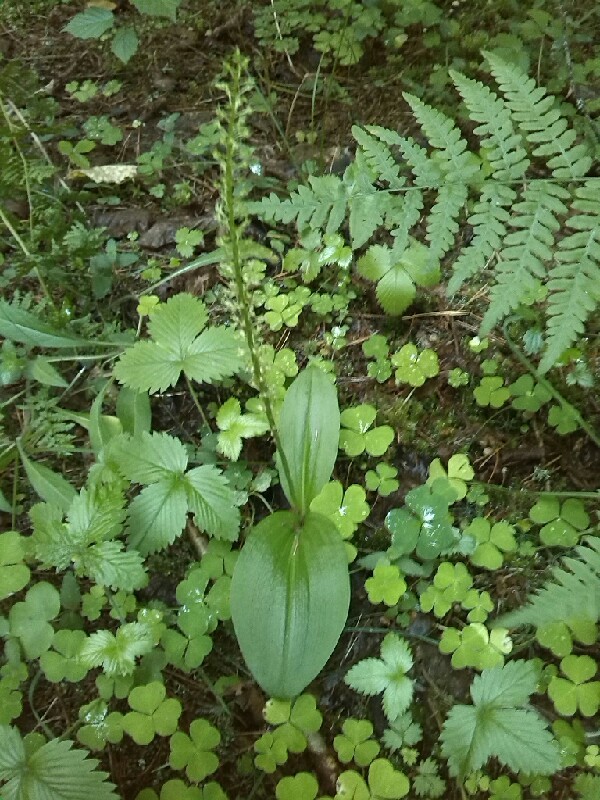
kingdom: Plantae
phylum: Tracheophyta
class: Liliopsida
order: Asparagales
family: Orchidaceae
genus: Malaxis
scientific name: Malaxis monophyllos
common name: White adder's-mouth
